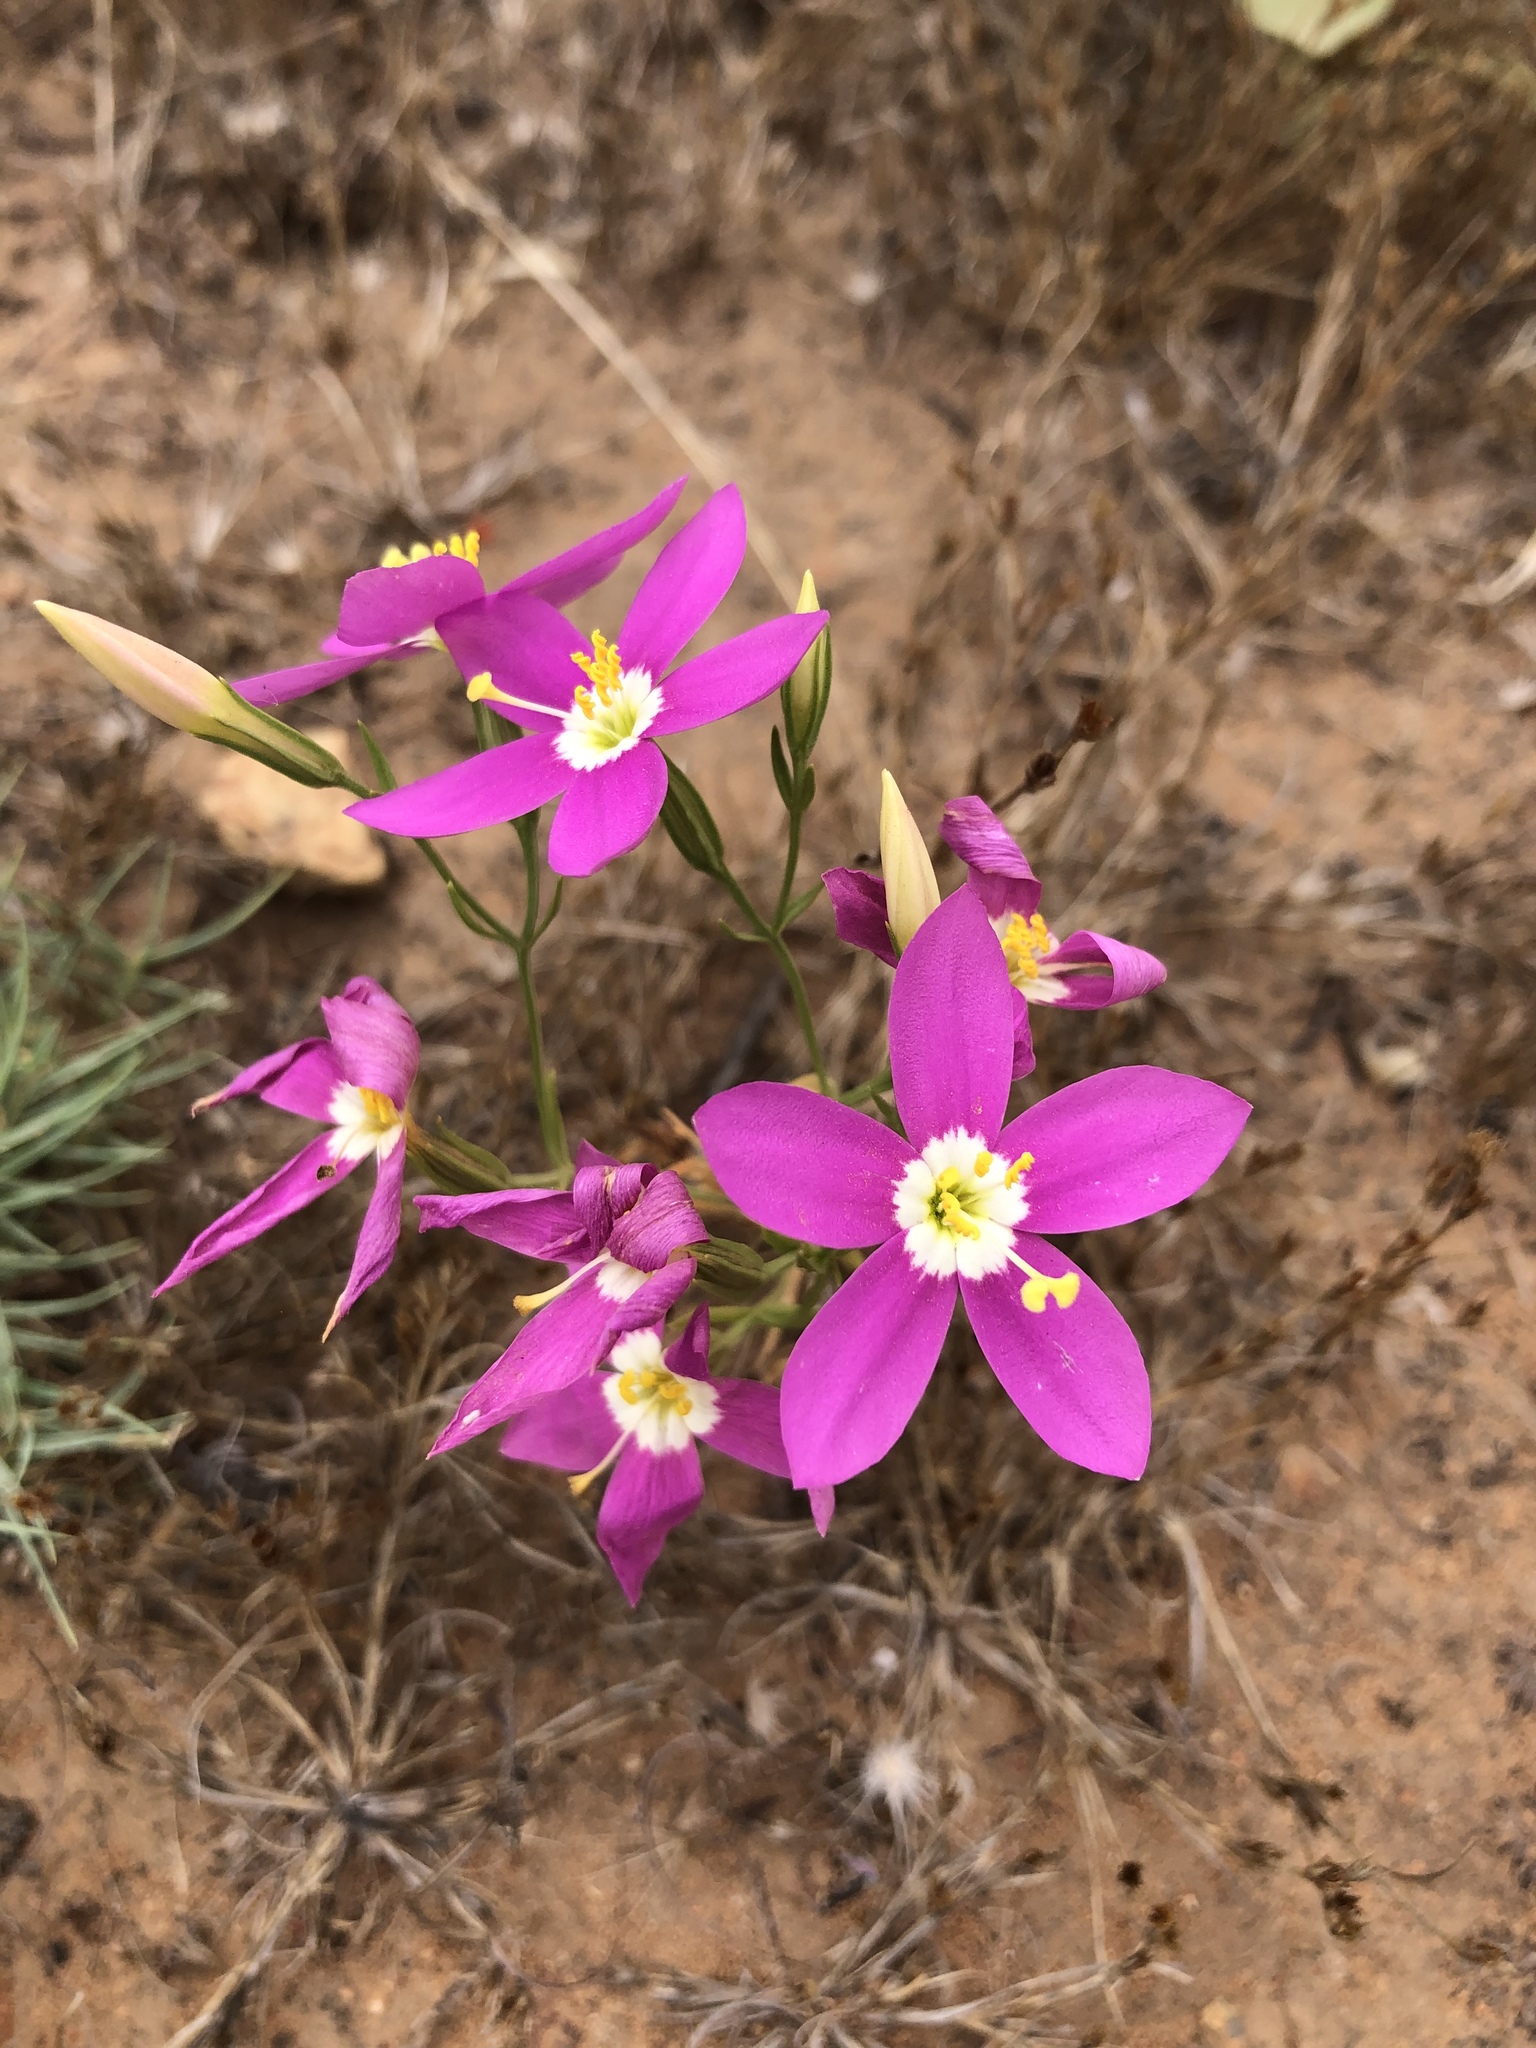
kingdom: Plantae
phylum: Tracheophyta
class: Magnoliopsida
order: Gentianales
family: Gentianaceae
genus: Zeltnera
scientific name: Zeltnera venusta
